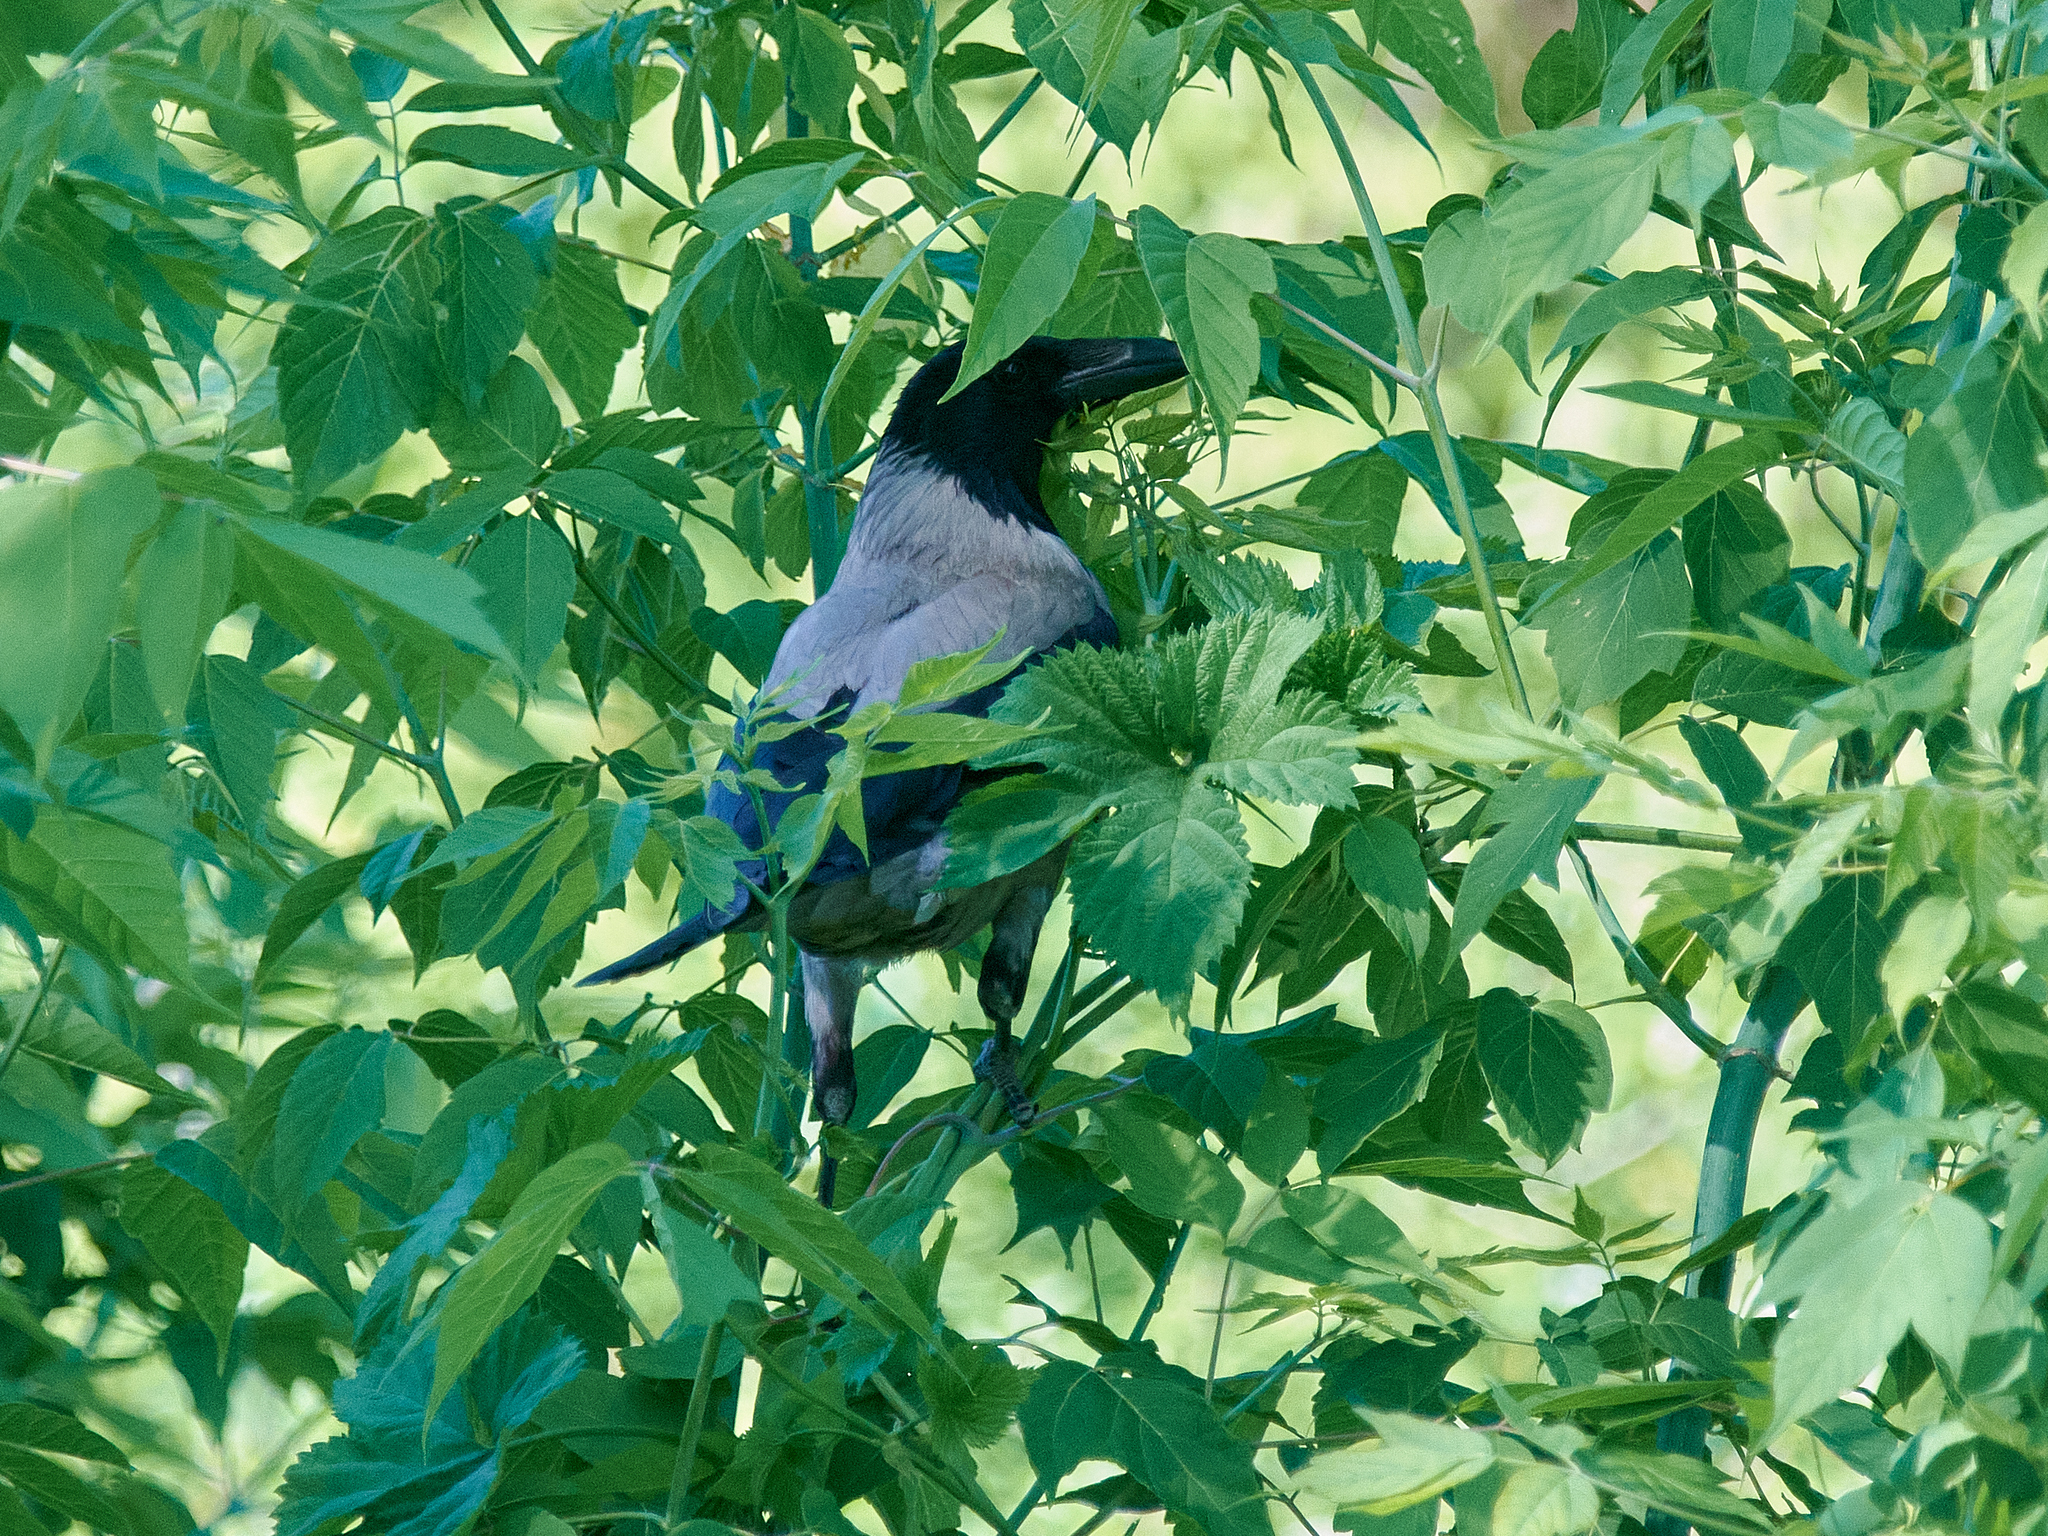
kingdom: Animalia
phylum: Chordata
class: Aves
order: Passeriformes
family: Corvidae
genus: Corvus
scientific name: Corvus cornix
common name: Hooded crow
